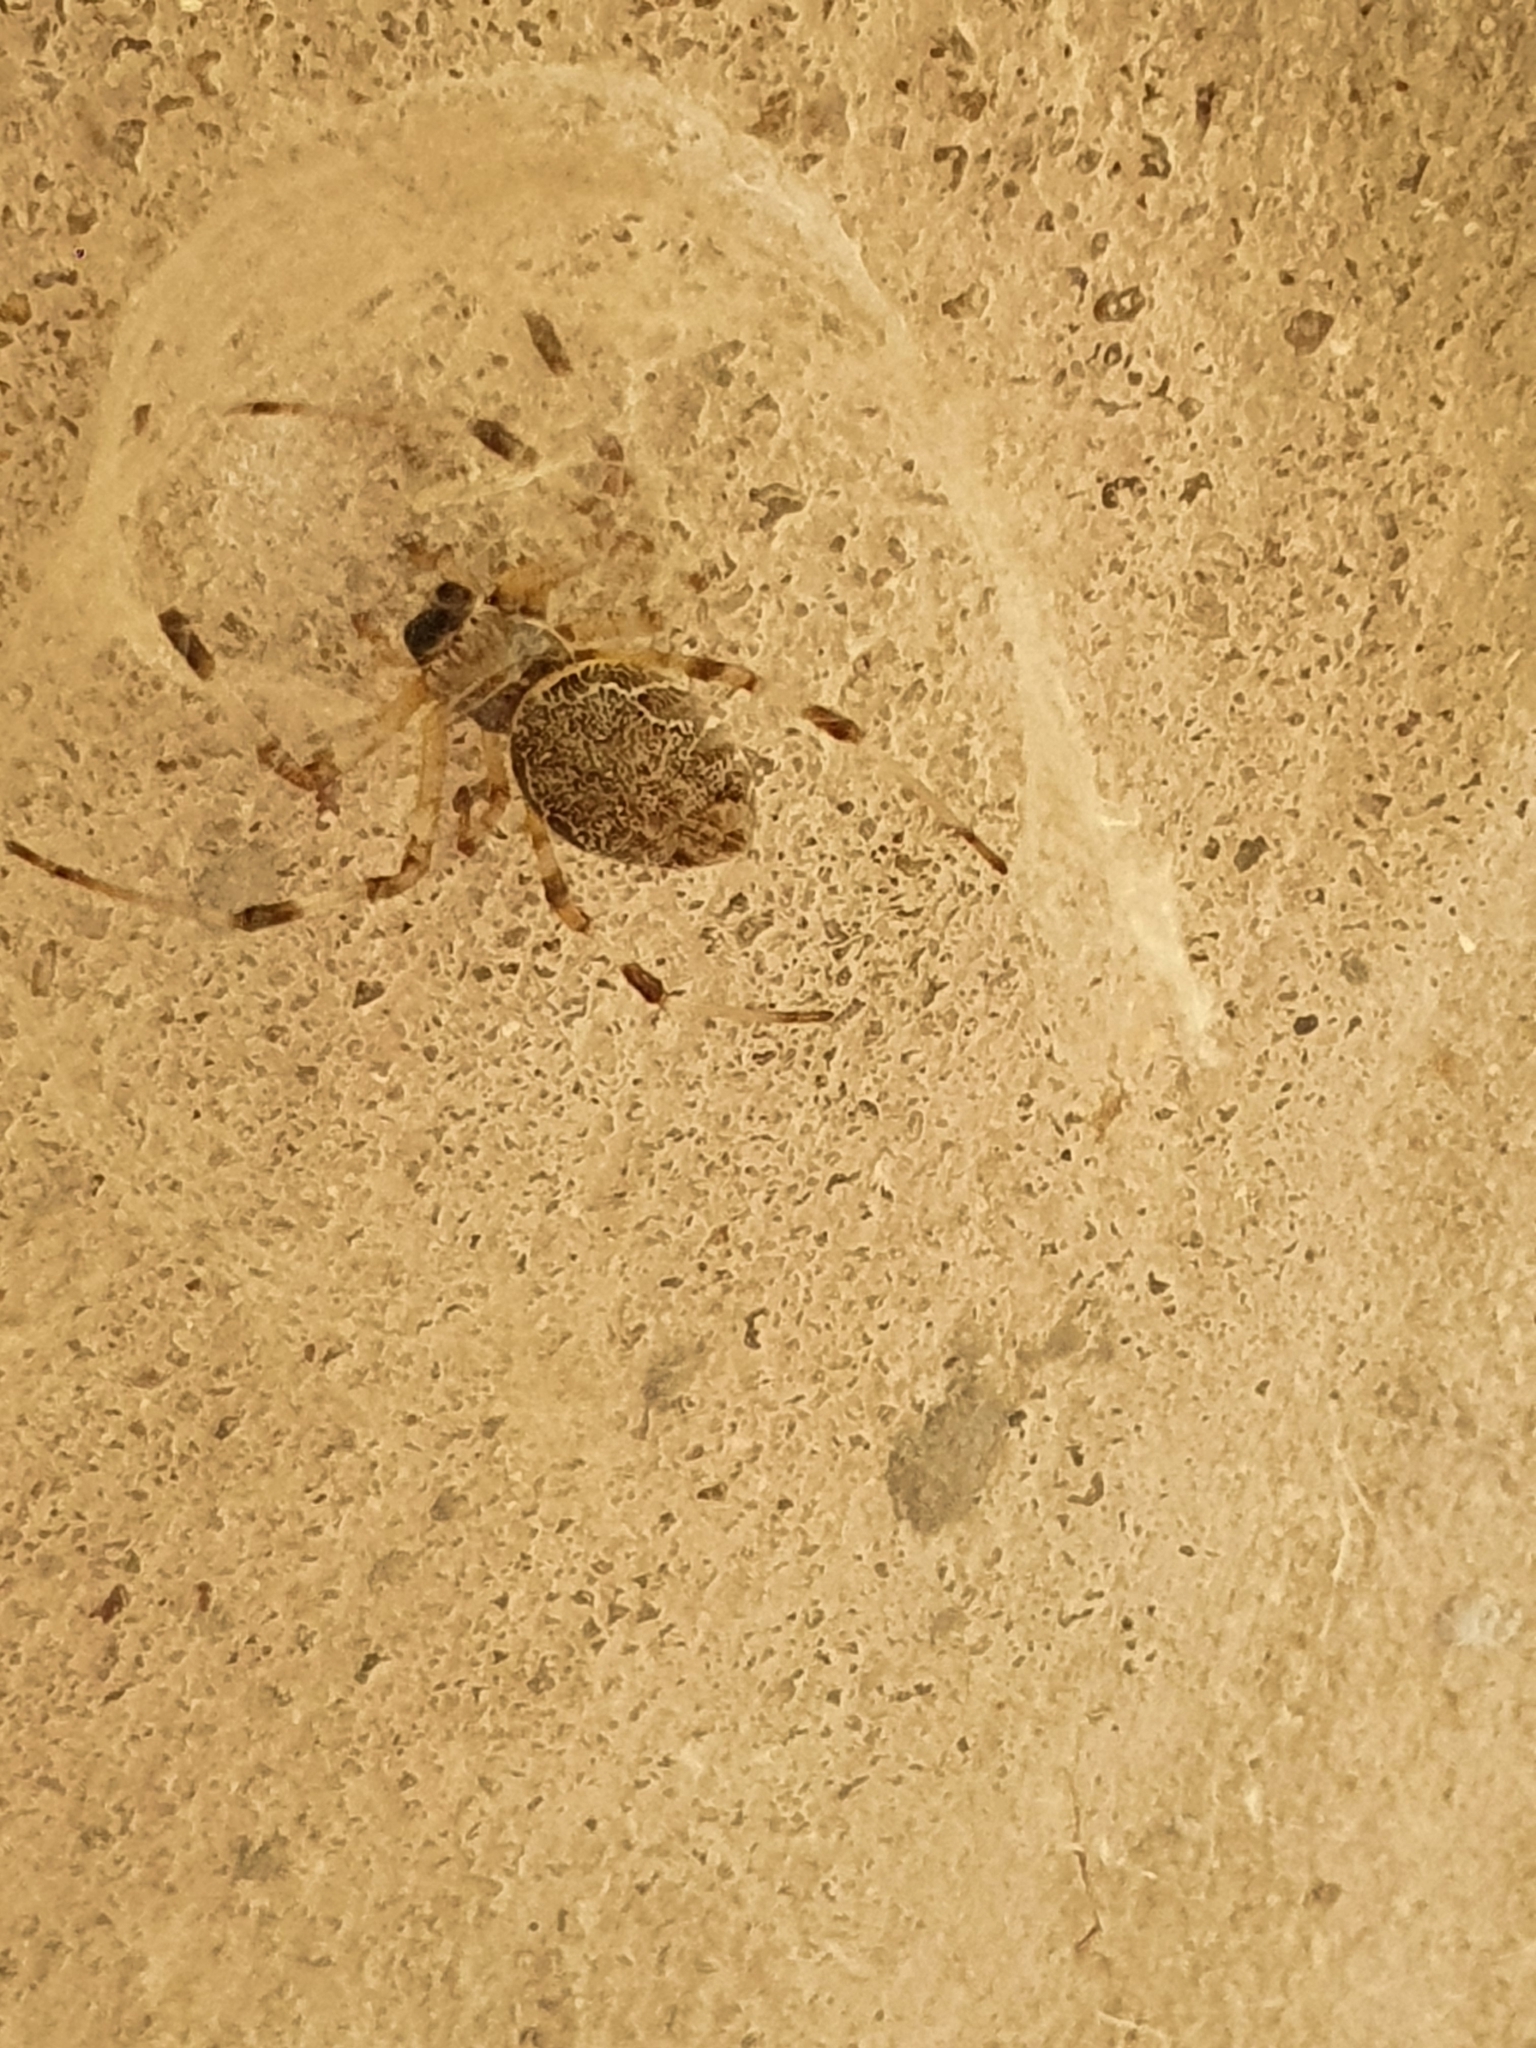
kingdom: Animalia
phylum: Arthropoda
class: Arachnida
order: Araneae
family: Araneidae
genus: Nephilingis
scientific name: Nephilingis cruentata
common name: African hermit spider
